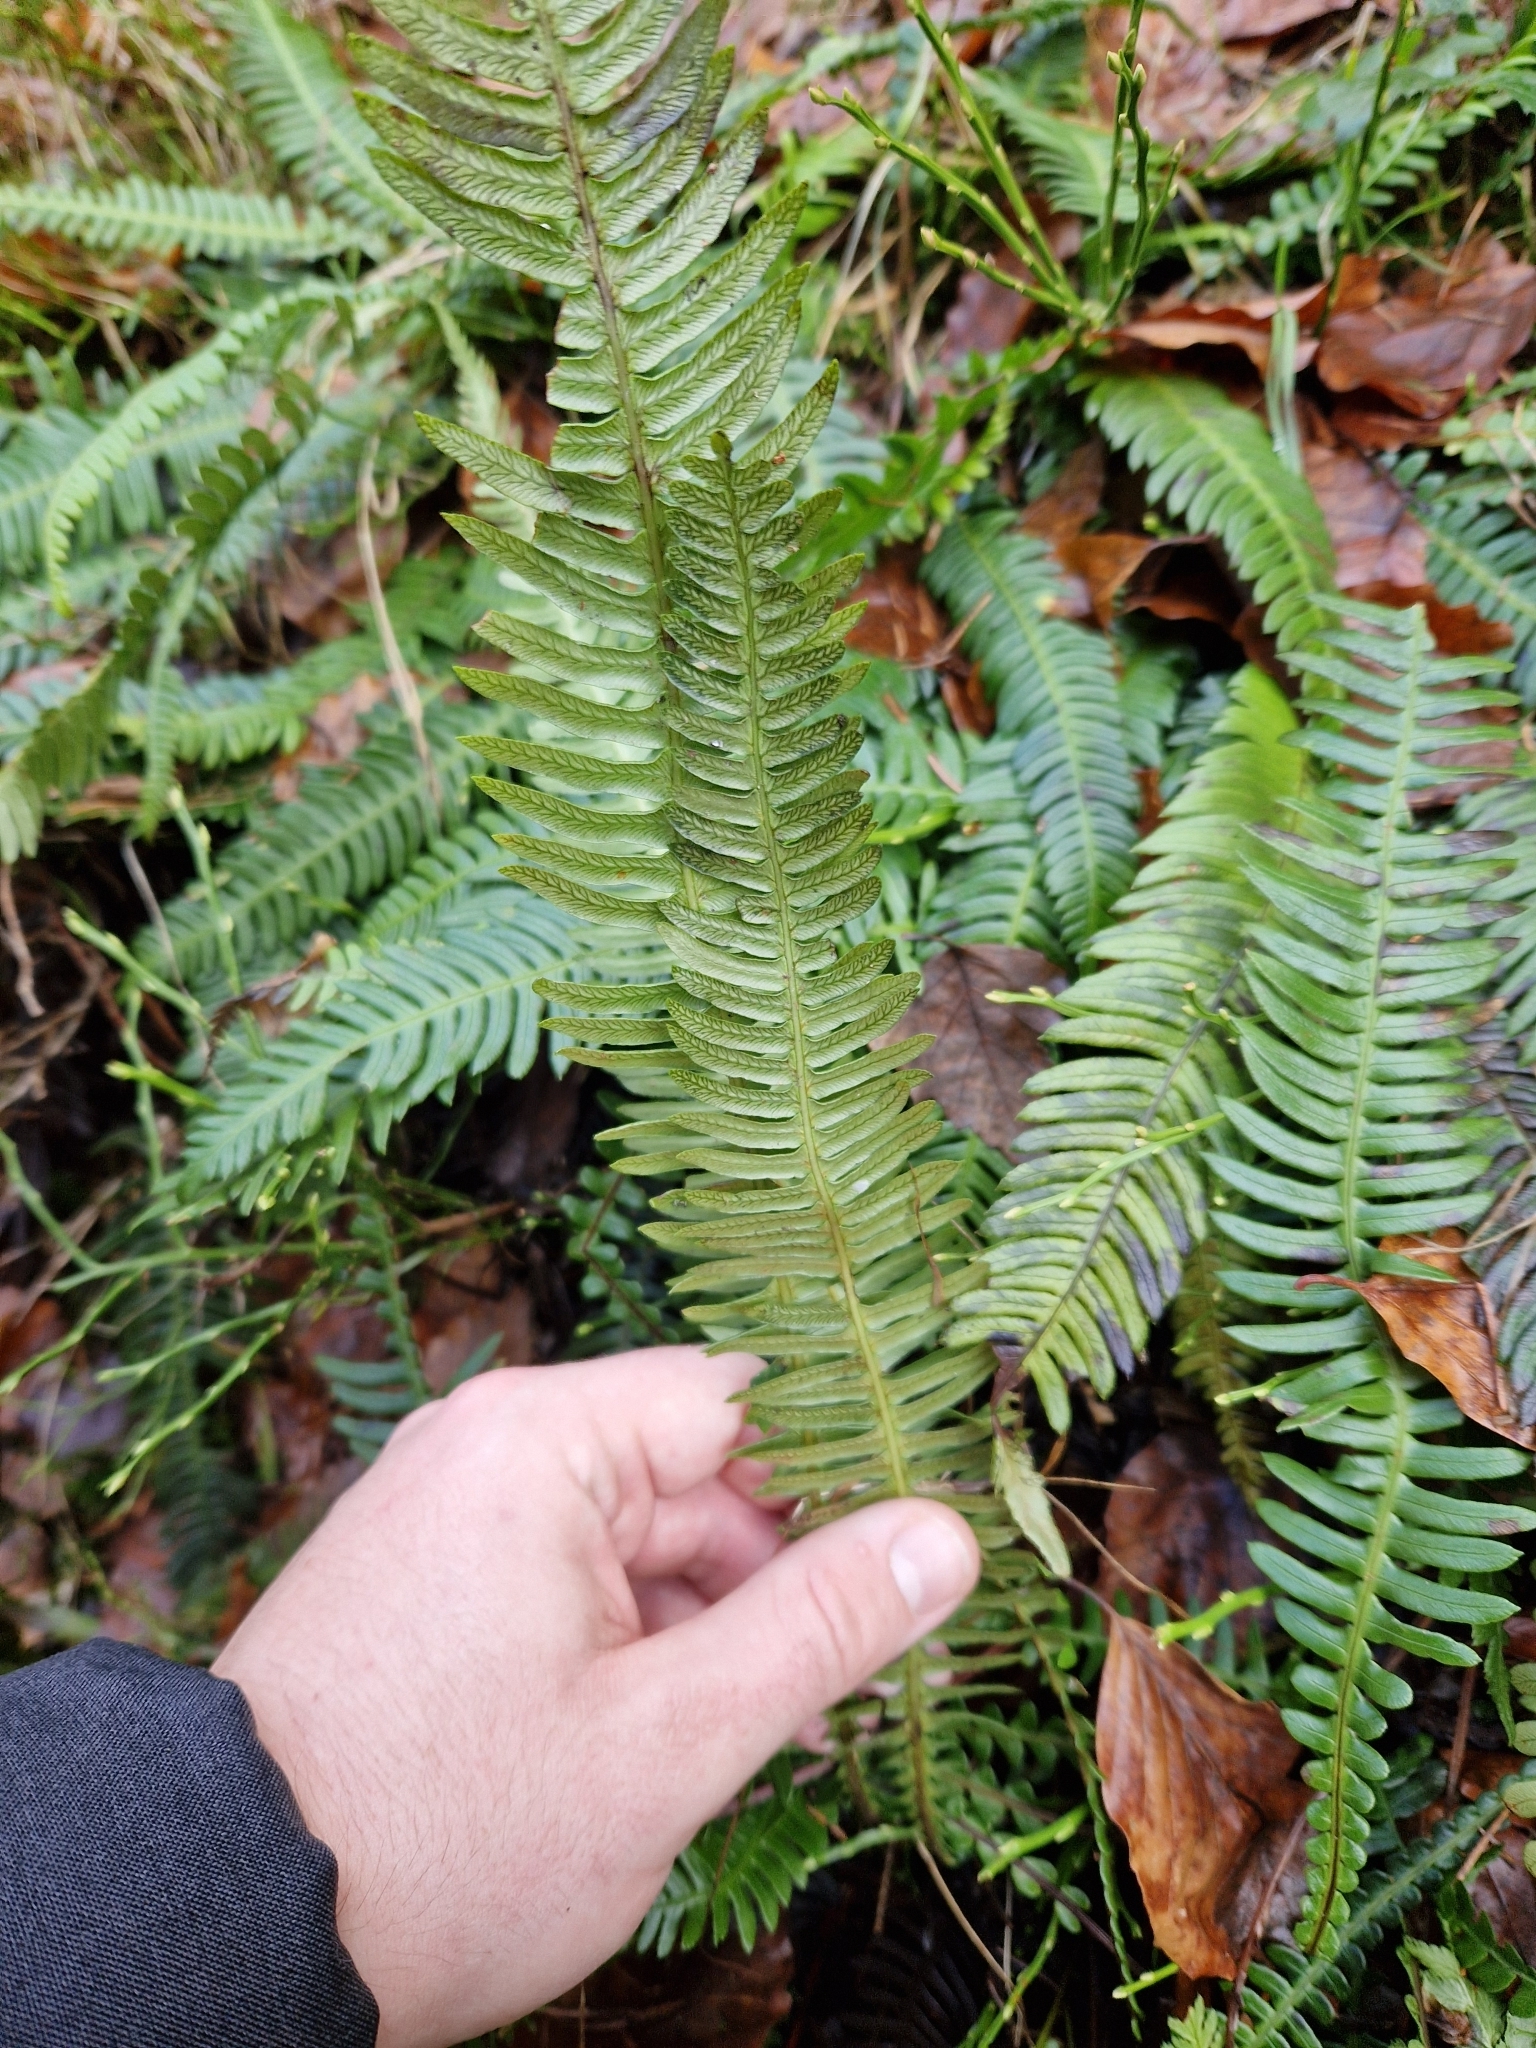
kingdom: Plantae
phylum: Tracheophyta
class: Polypodiopsida
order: Polypodiales
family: Blechnaceae
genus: Struthiopteris
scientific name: Struthiopteris spicant
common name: Deer fern
